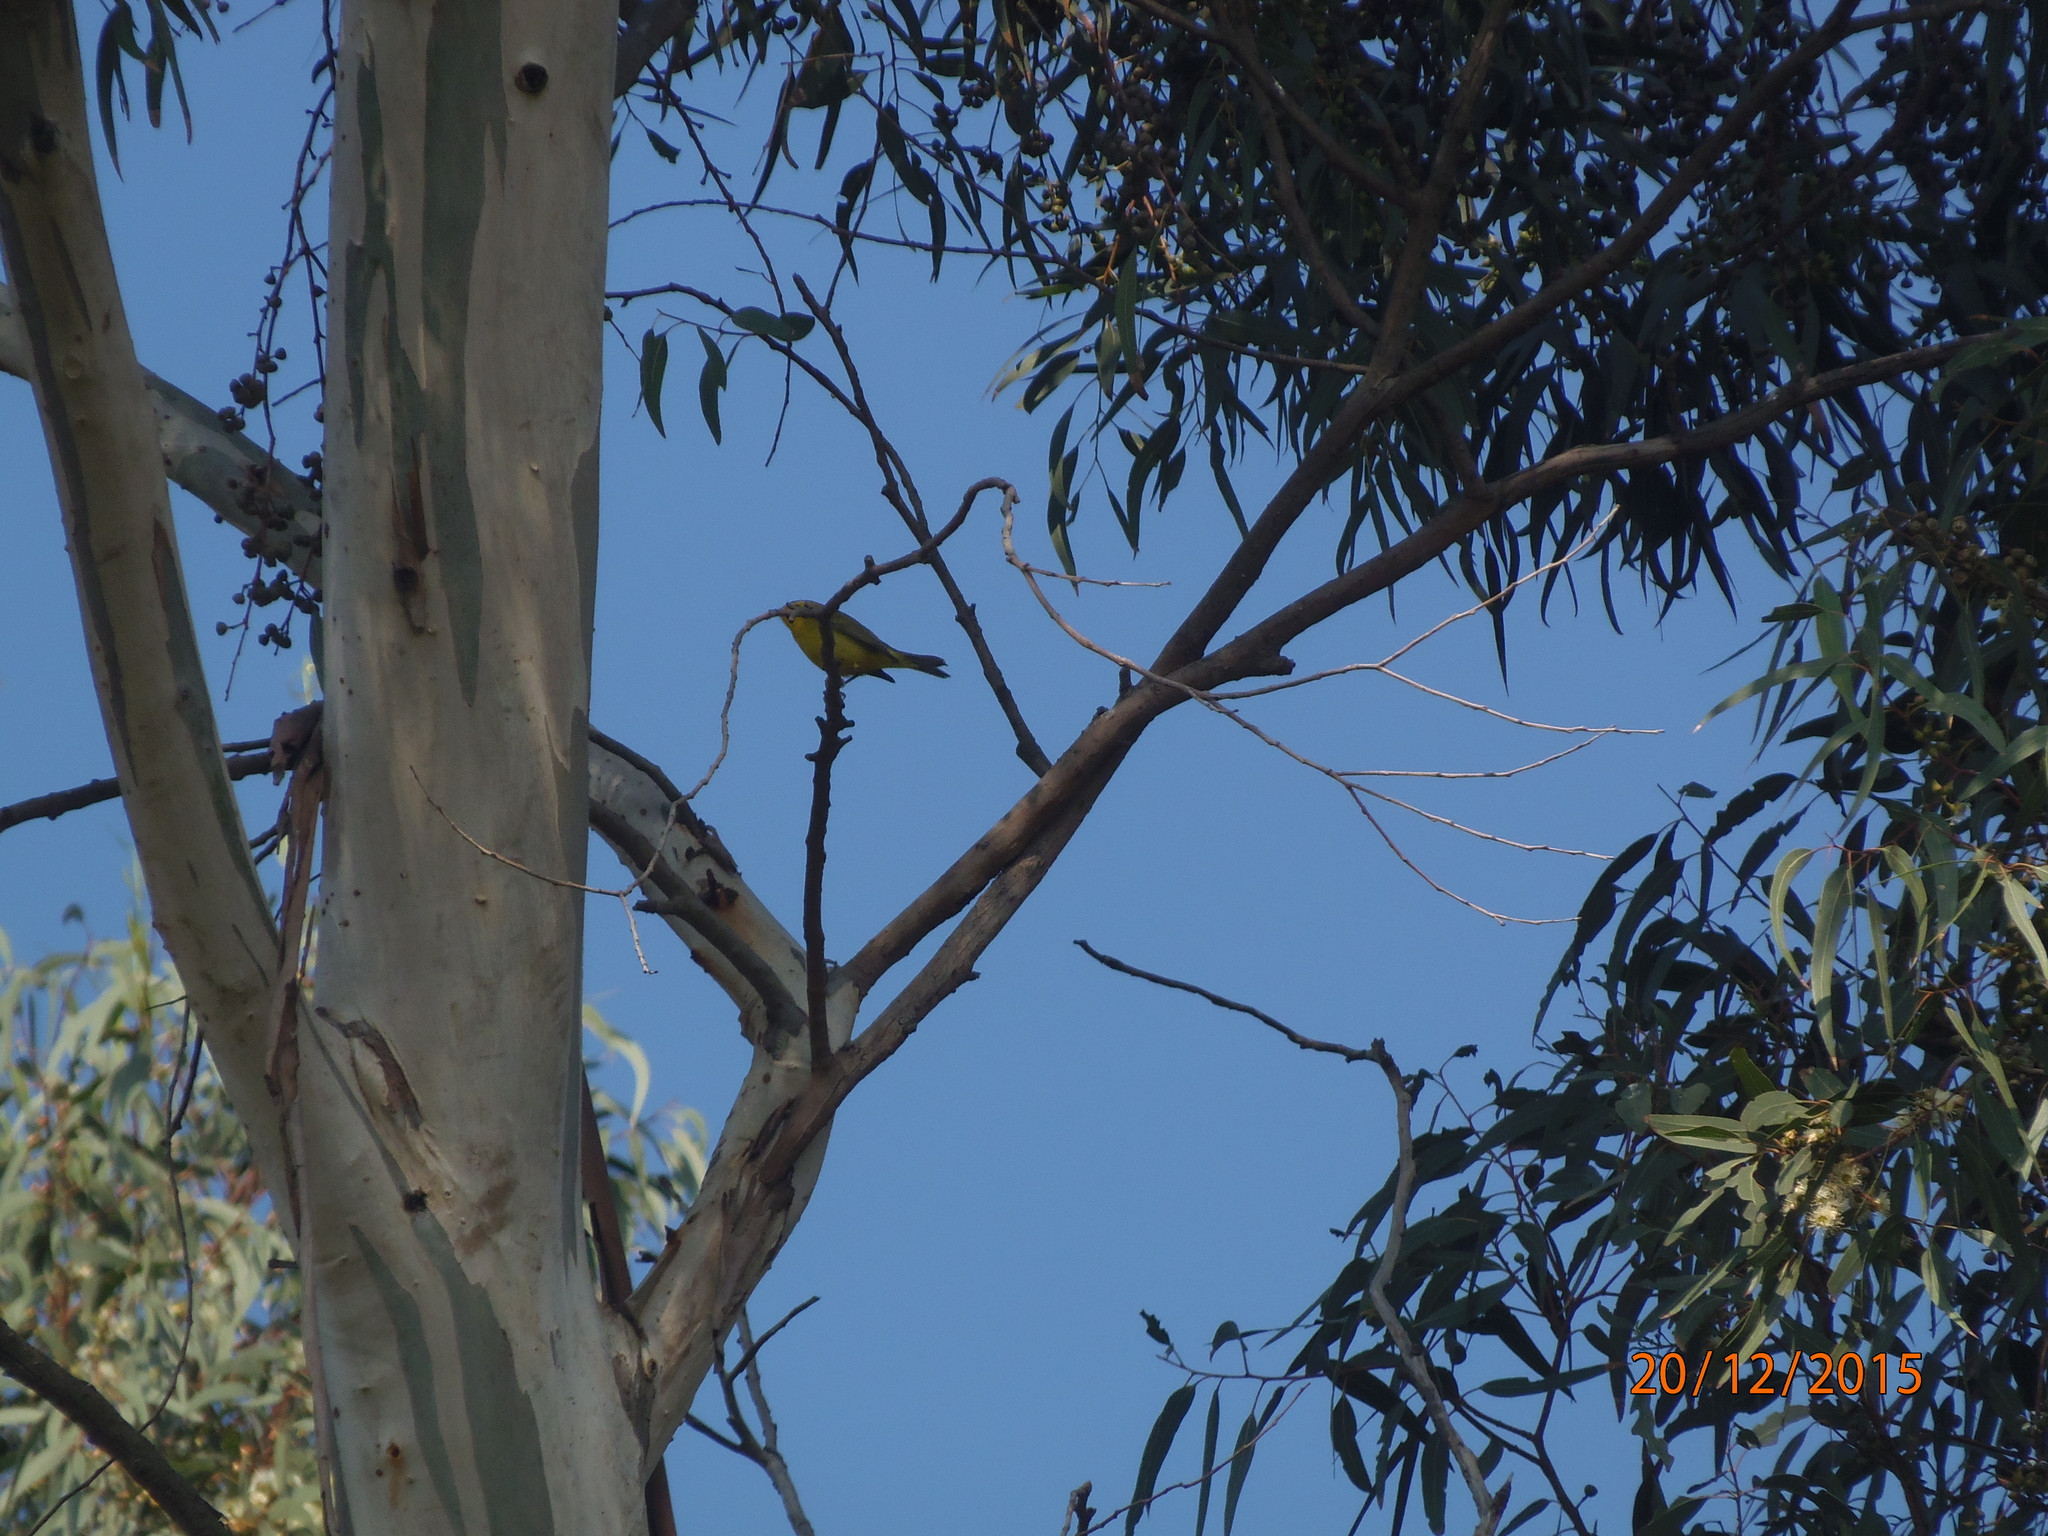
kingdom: Animalia
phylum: Chordata
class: Aves
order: Passeriformes
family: Parulidae
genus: Cardellina
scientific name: Cardellina pusilla
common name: Wilson's warbler
